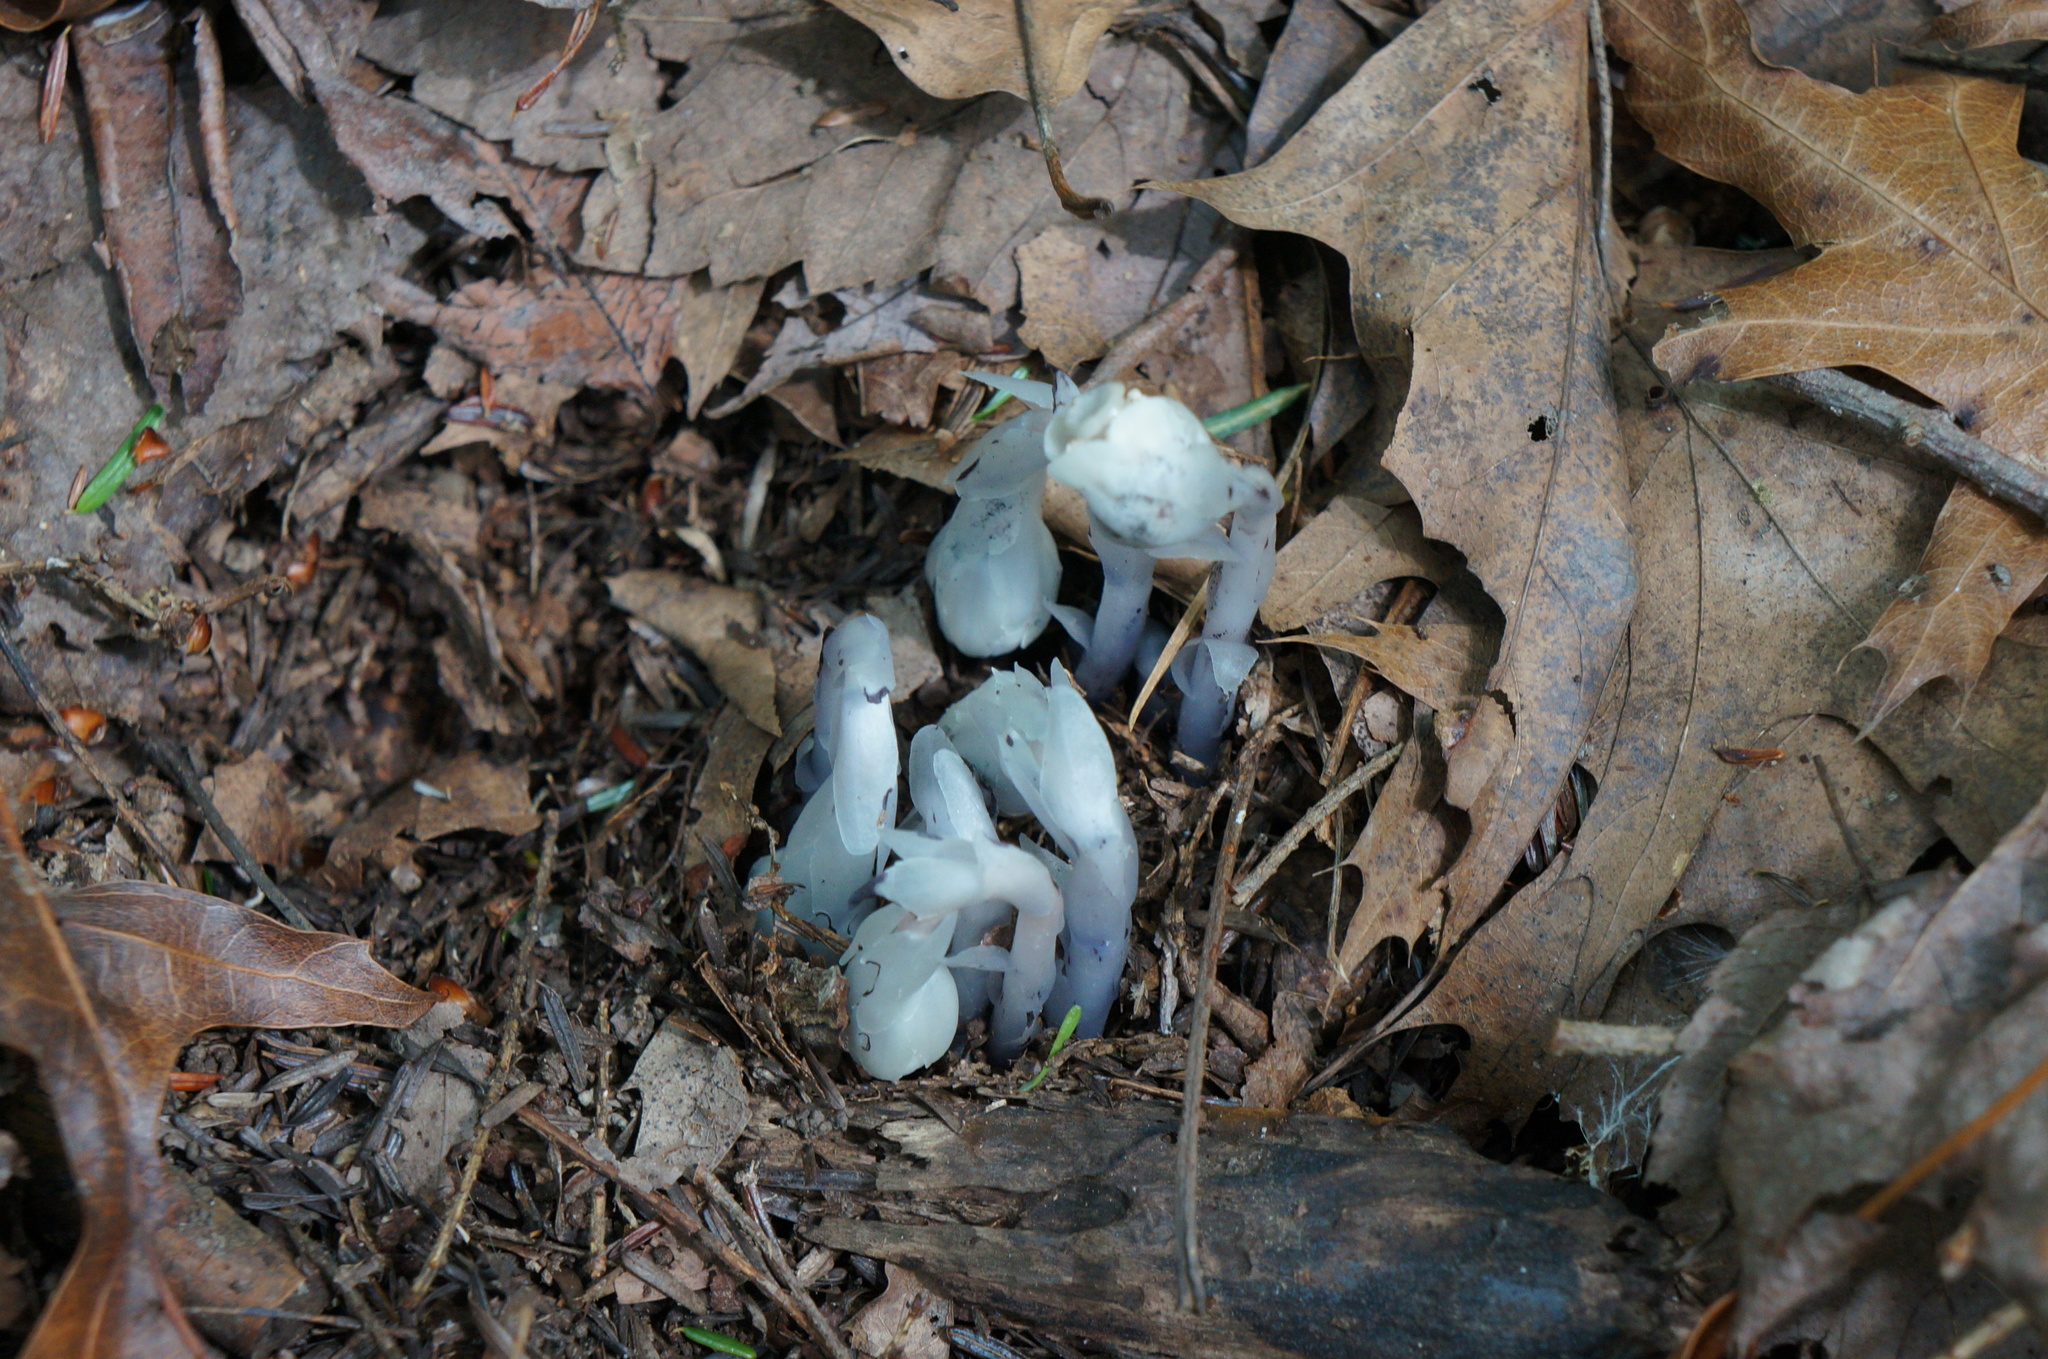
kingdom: Plantae
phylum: Tracheophyta
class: Magnoliopsida
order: Ericales
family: Ericaceae
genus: Monotropa
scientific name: Monotropa uniflora
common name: Convulsion root
